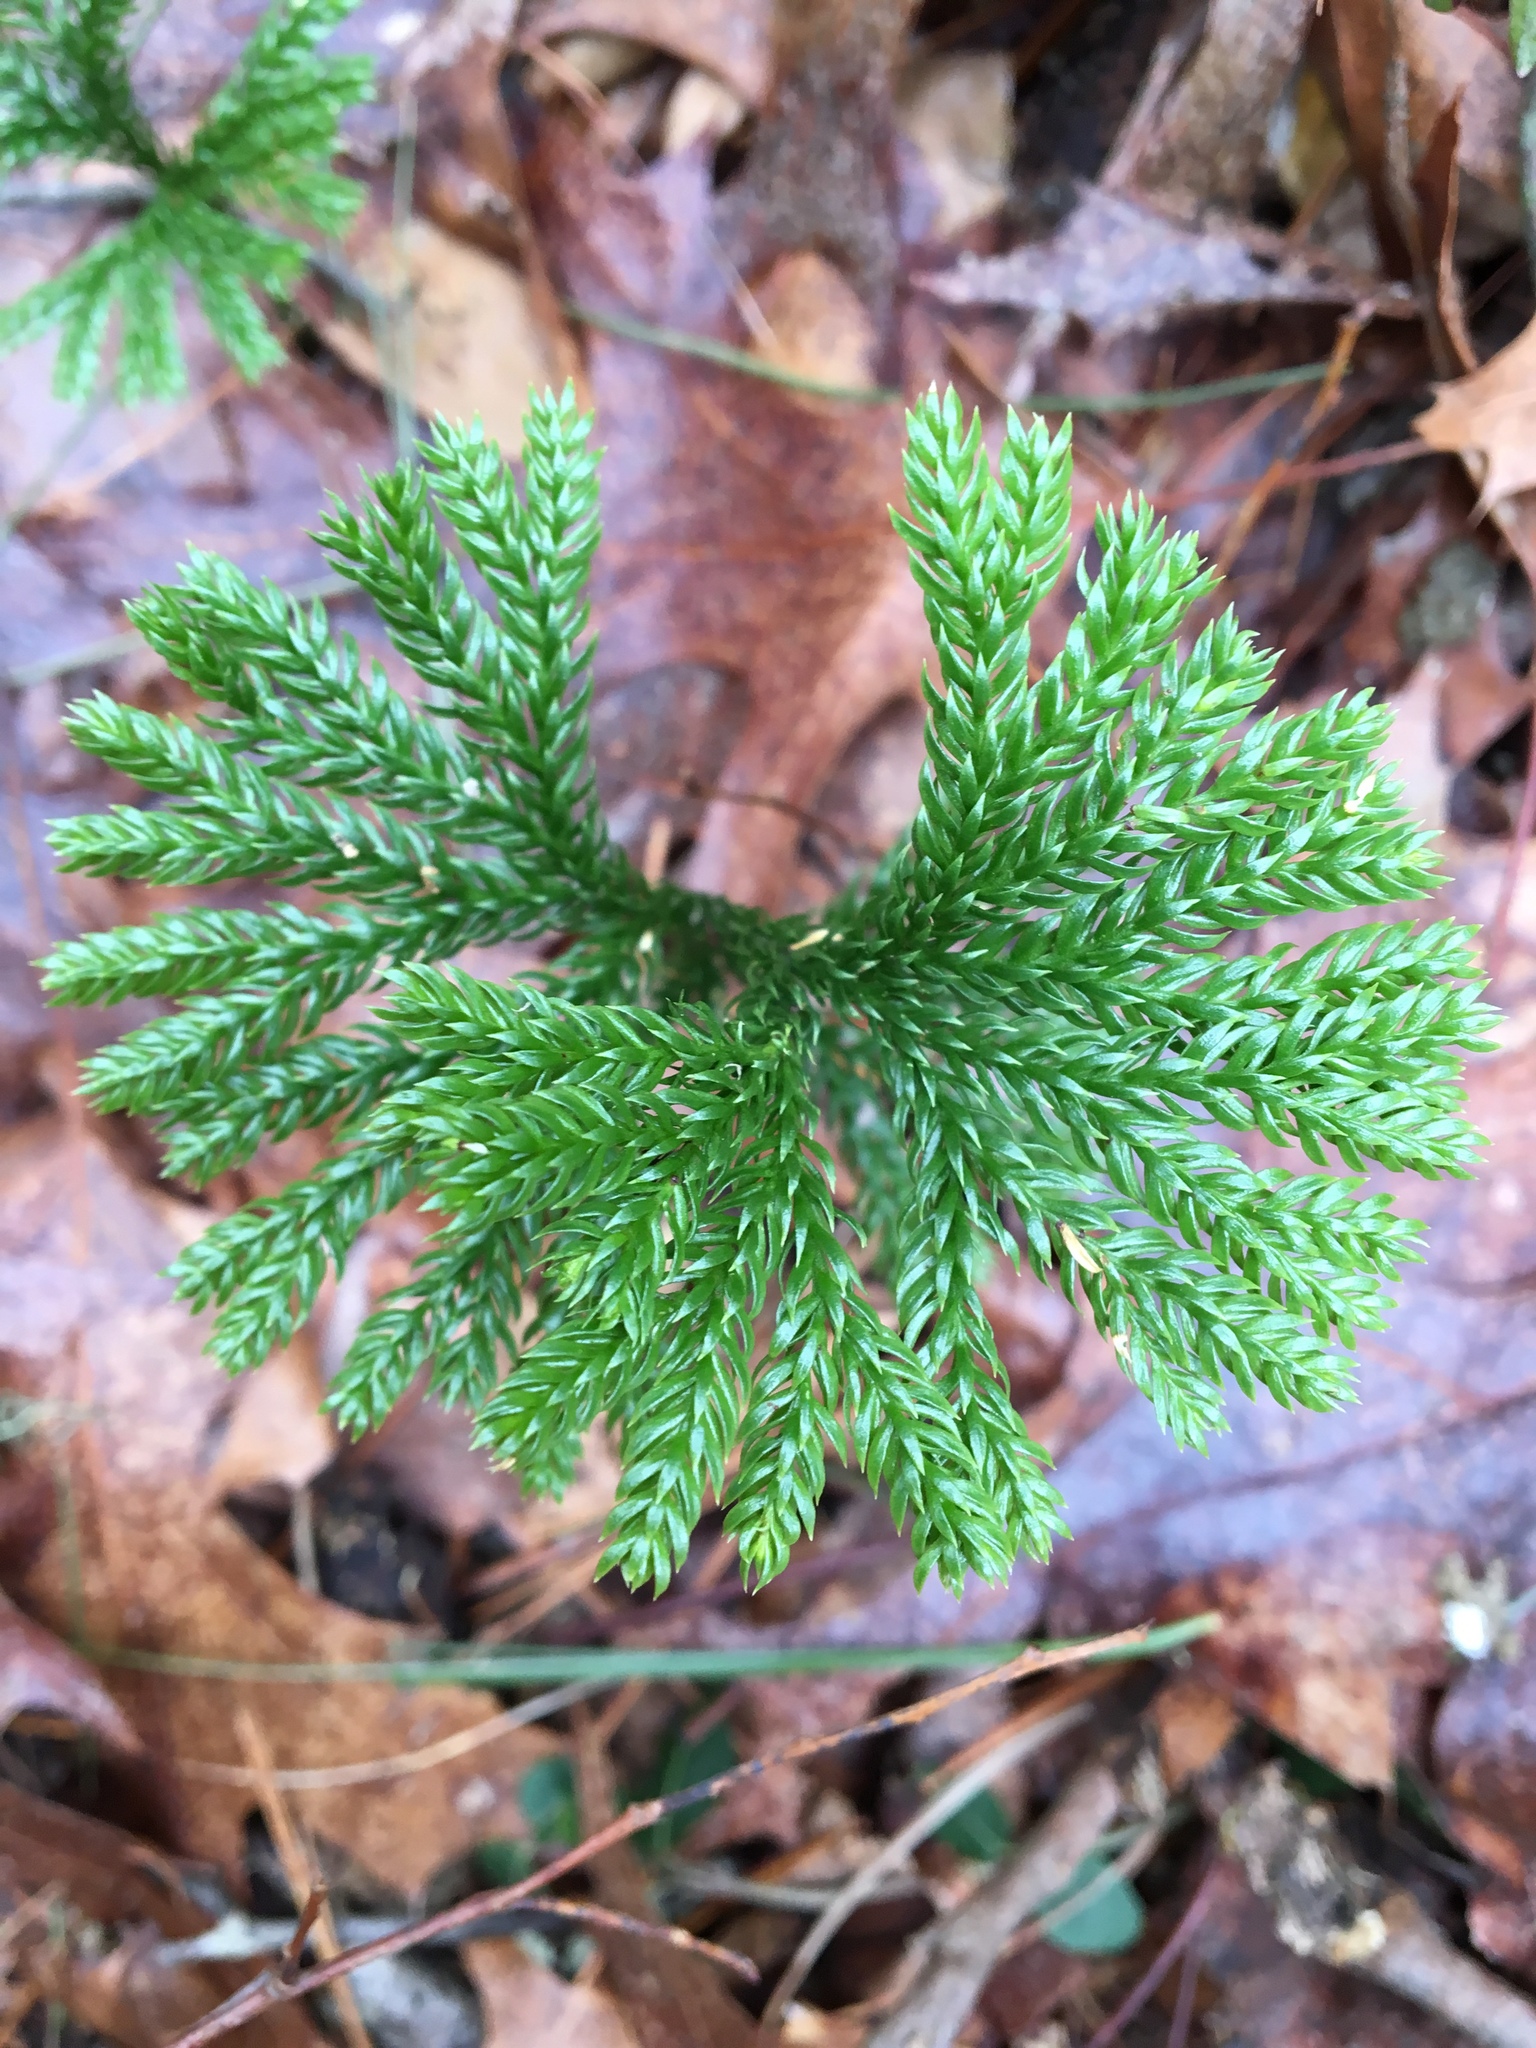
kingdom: Plantae
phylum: Tracheophyta
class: Lycopodiopsida
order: Lycopodiales
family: Lycopodiaceae
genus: Dendrolycopodium
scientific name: Dendrolycopodium dendroideum
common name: Northern tree-clubmoss
